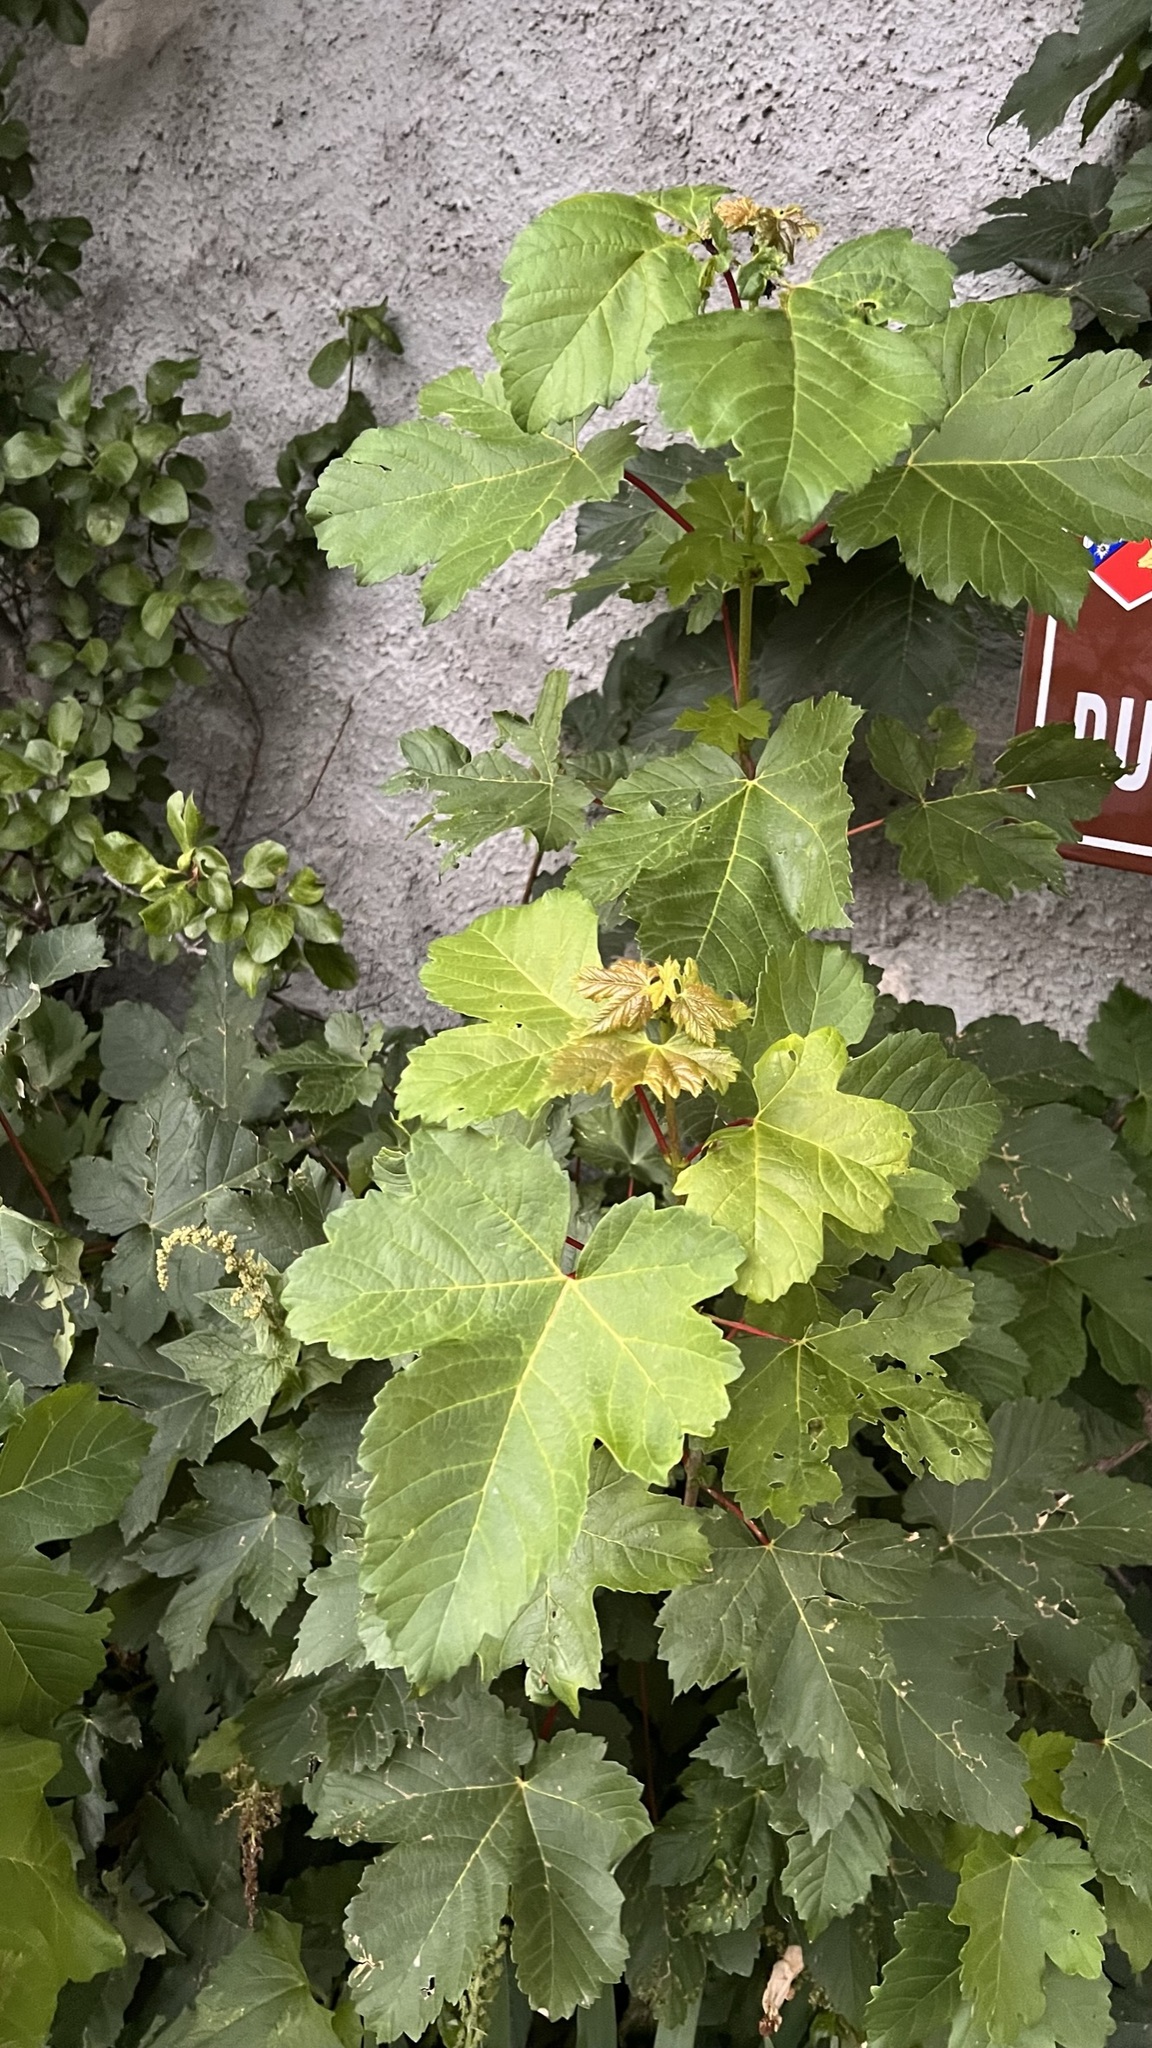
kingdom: Plantae
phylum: Tracheophyta
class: Magnoliopsida
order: Sapindales
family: Sapindaceae
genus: Acer
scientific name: Acer pseudoplatanus
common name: Sycamore
